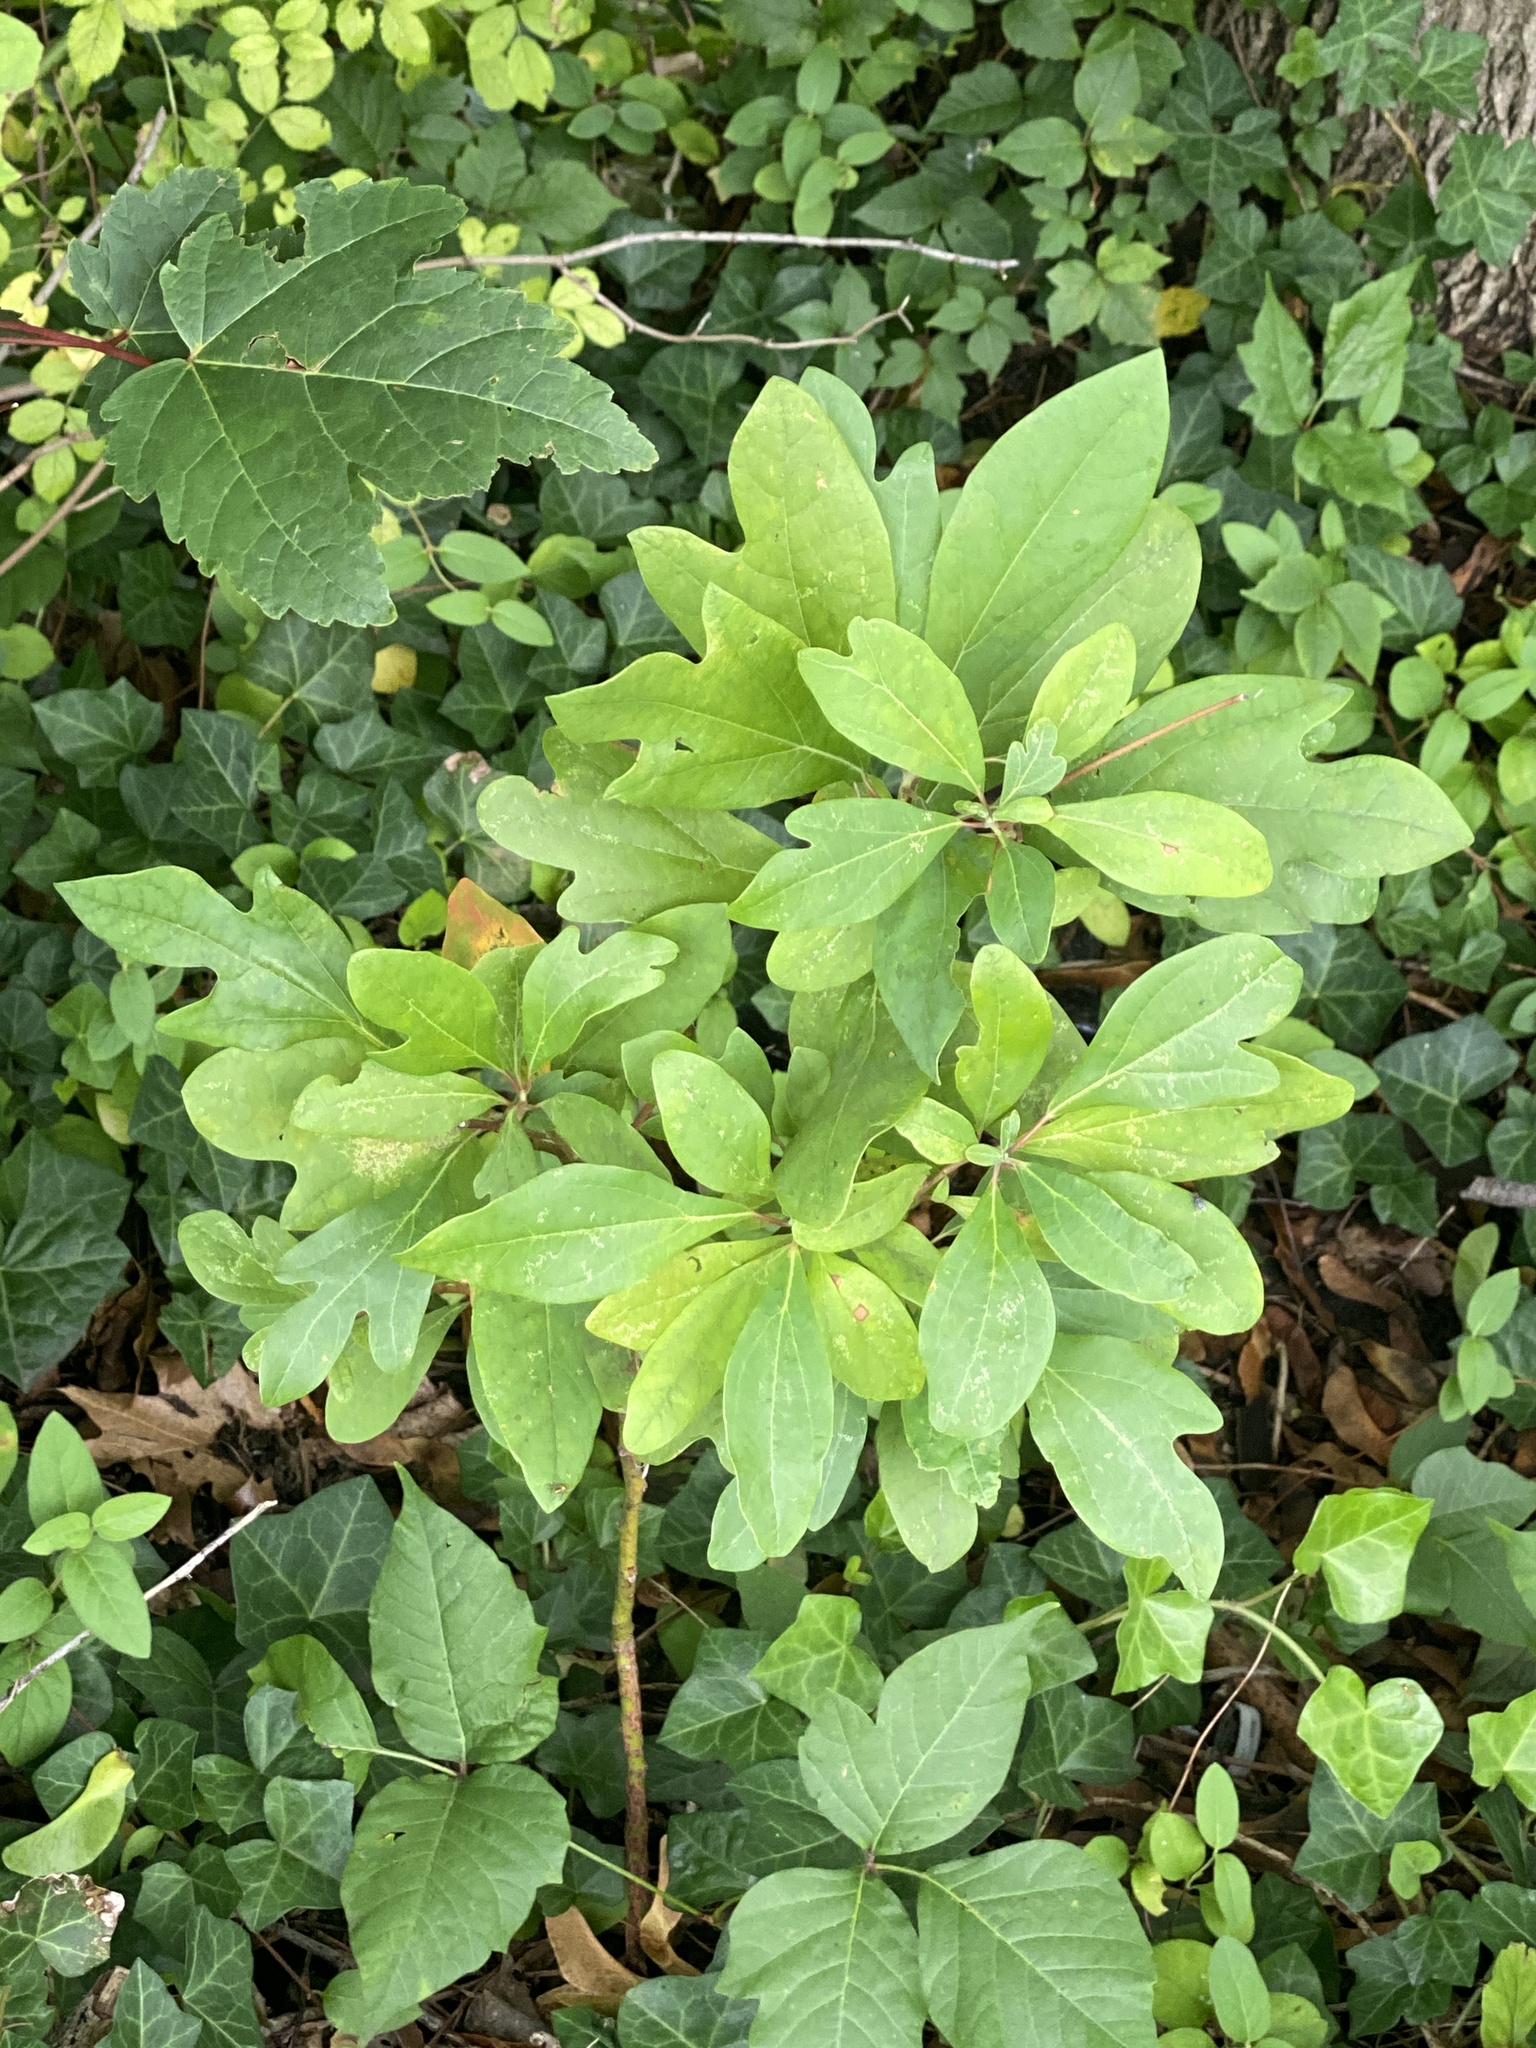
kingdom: Plantae
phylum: Tracheophyta
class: Magnoliopsida
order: Laurales
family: Lauraceae
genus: Sassafras
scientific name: Sassafras albidum
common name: Sassafras
